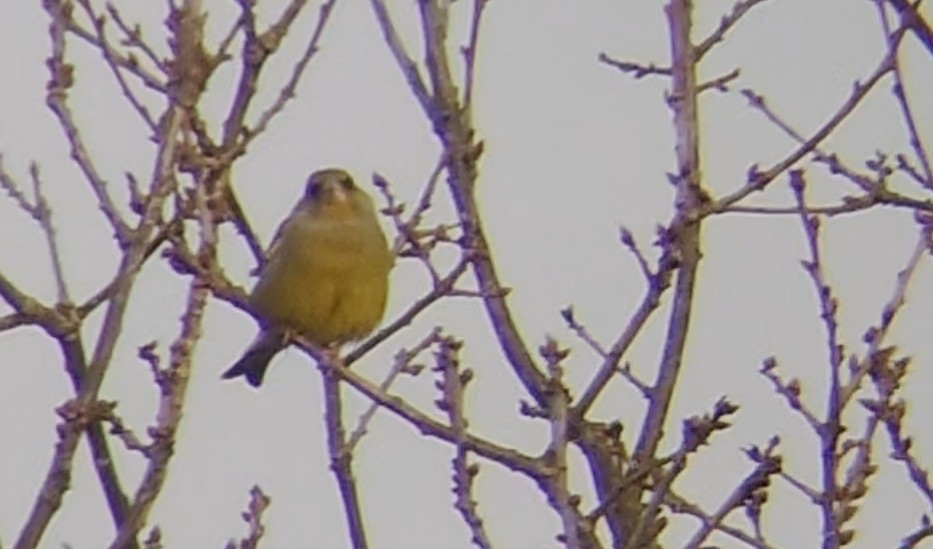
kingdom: Plantae
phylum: Tracheophyta
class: Liliopsida
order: Poales
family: Poaceae
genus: Chloris
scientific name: Chloris chloris
